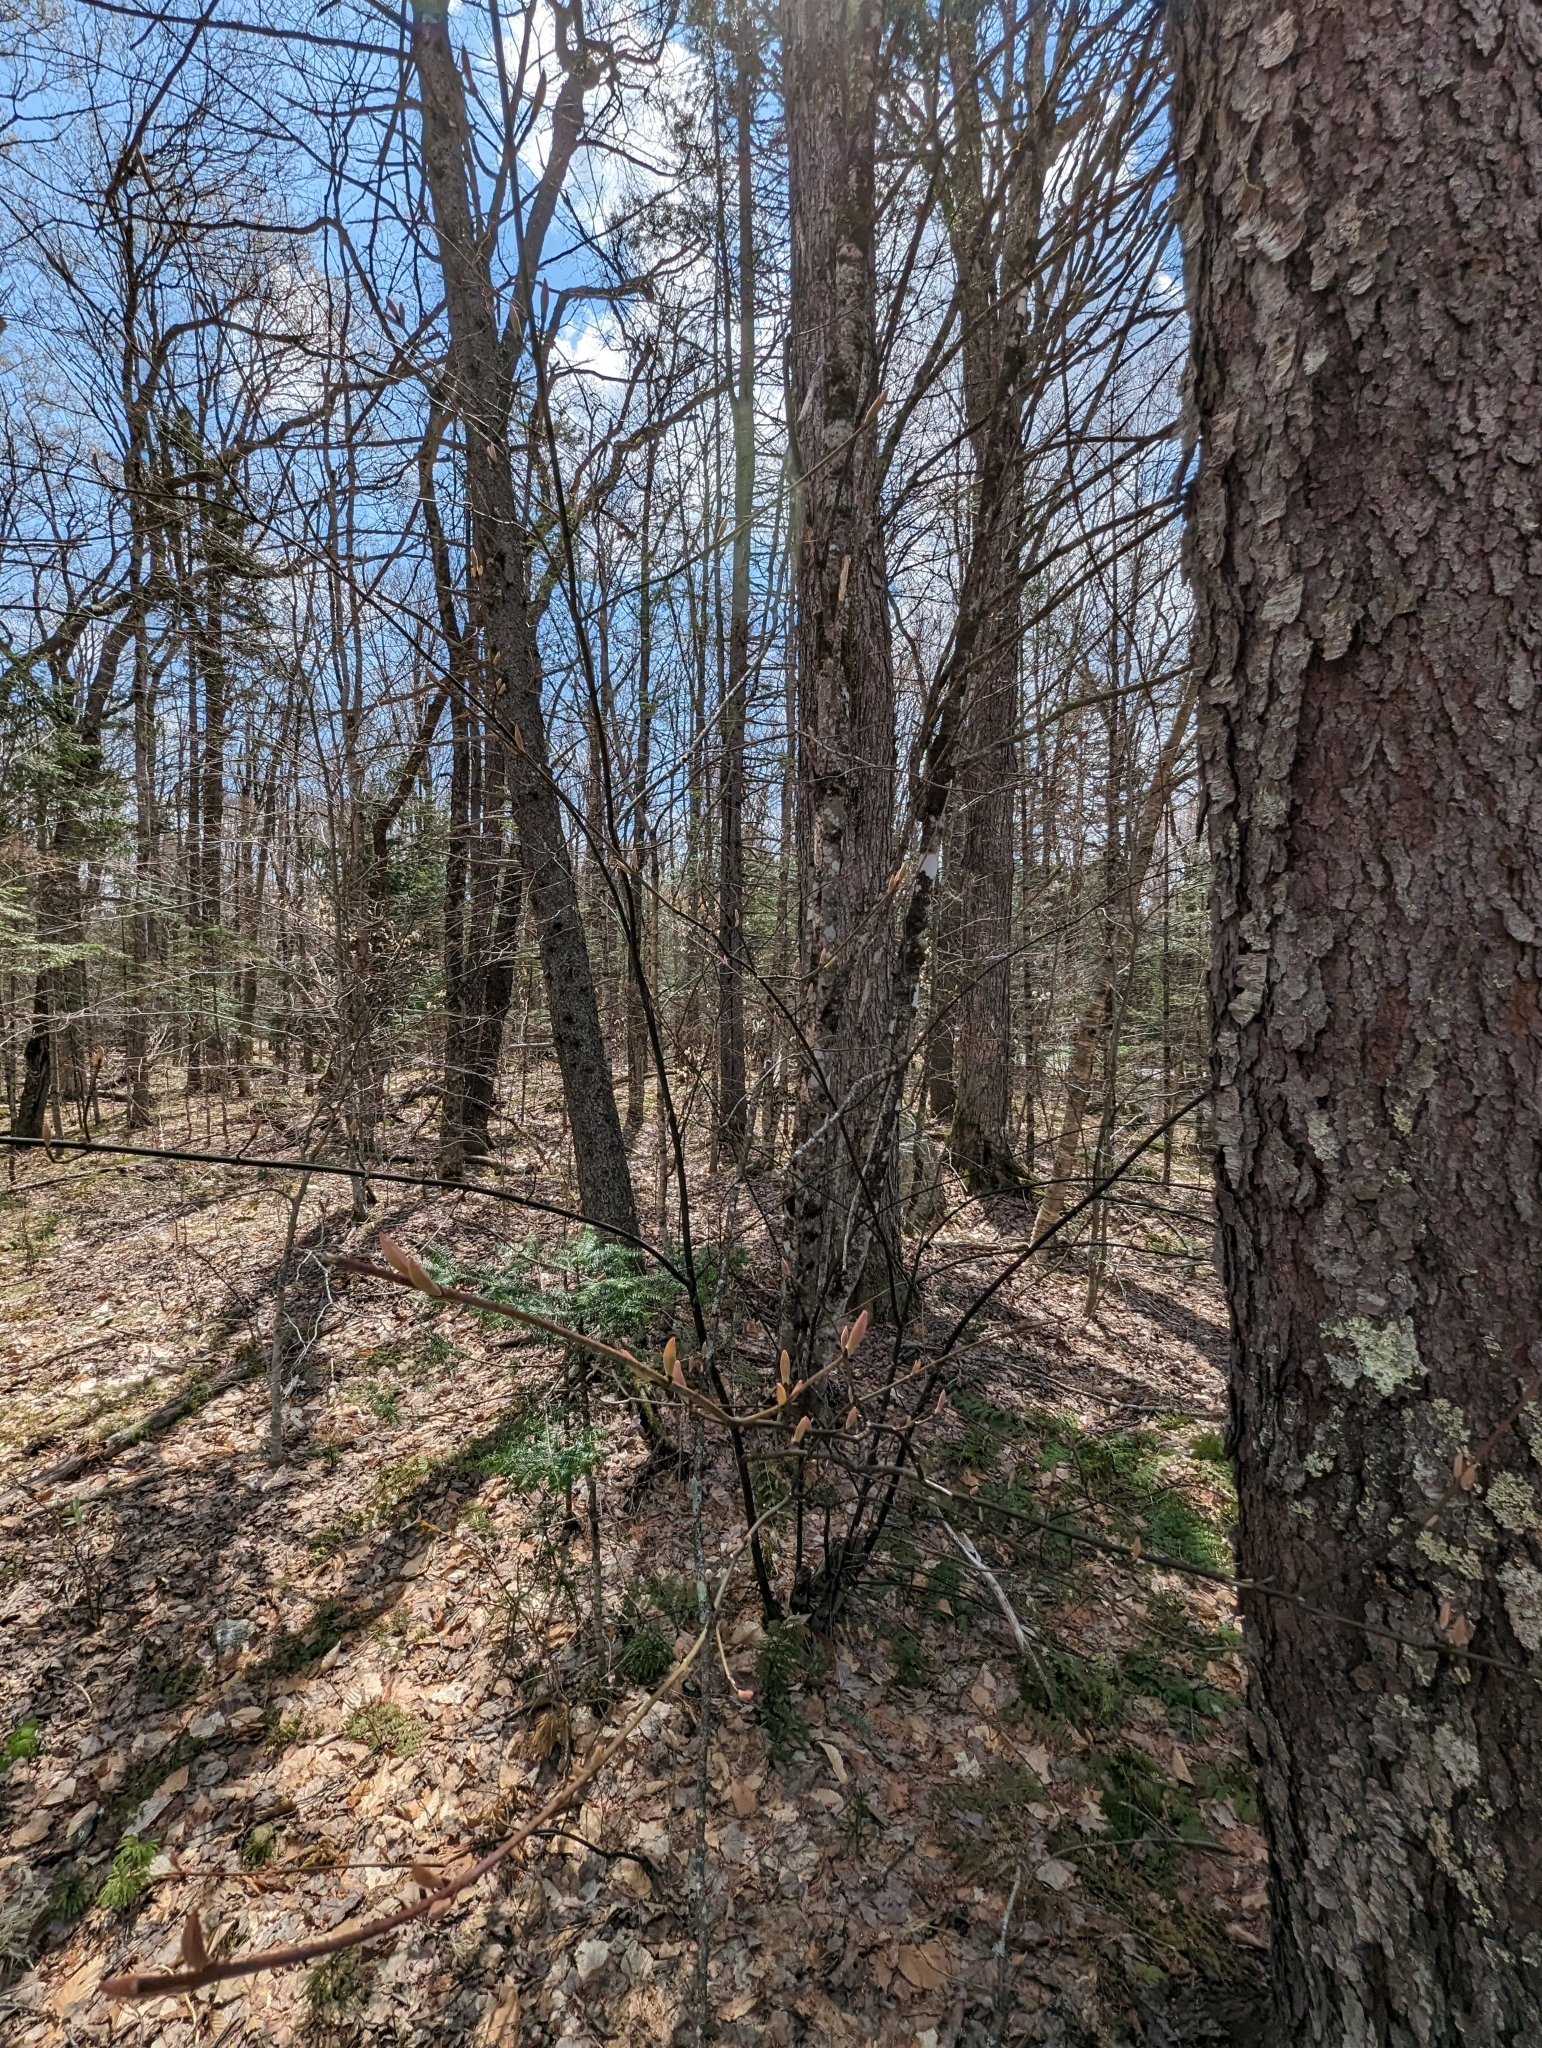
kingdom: Plantae
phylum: Tracheophyta
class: Magnoliopsida
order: Sapindales
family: Sapindaceae
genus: Acer
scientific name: Acer pensylvanicum
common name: Moosewood
